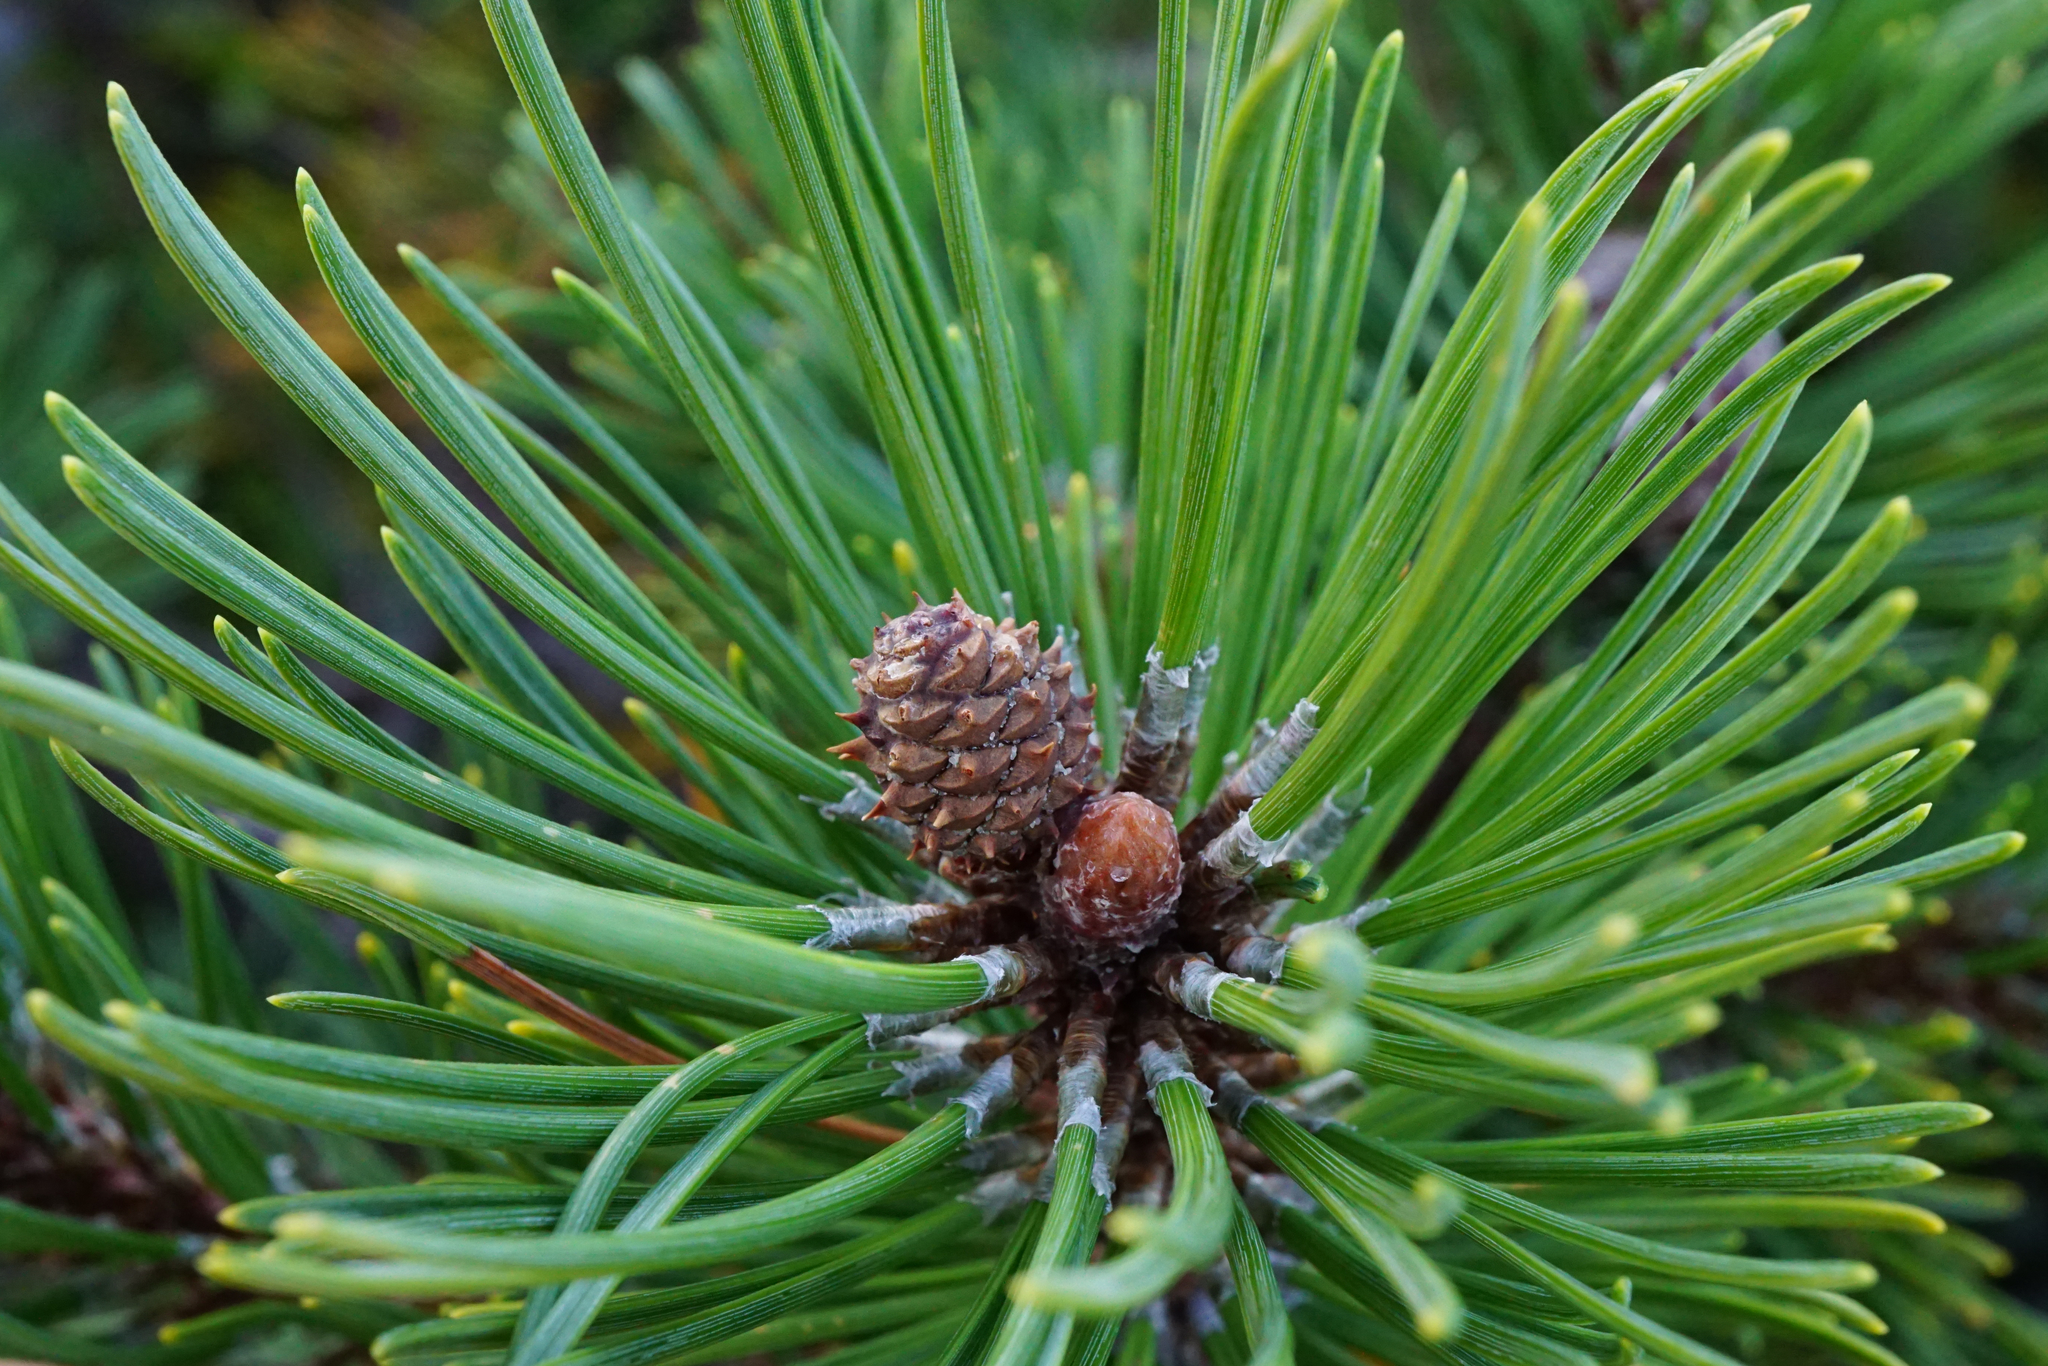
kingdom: Plantae
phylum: Tracheophyta
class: Pinopsida
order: Pinales
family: Pinaceae
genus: Pinus
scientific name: Pinus mugo
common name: Mugo pine
